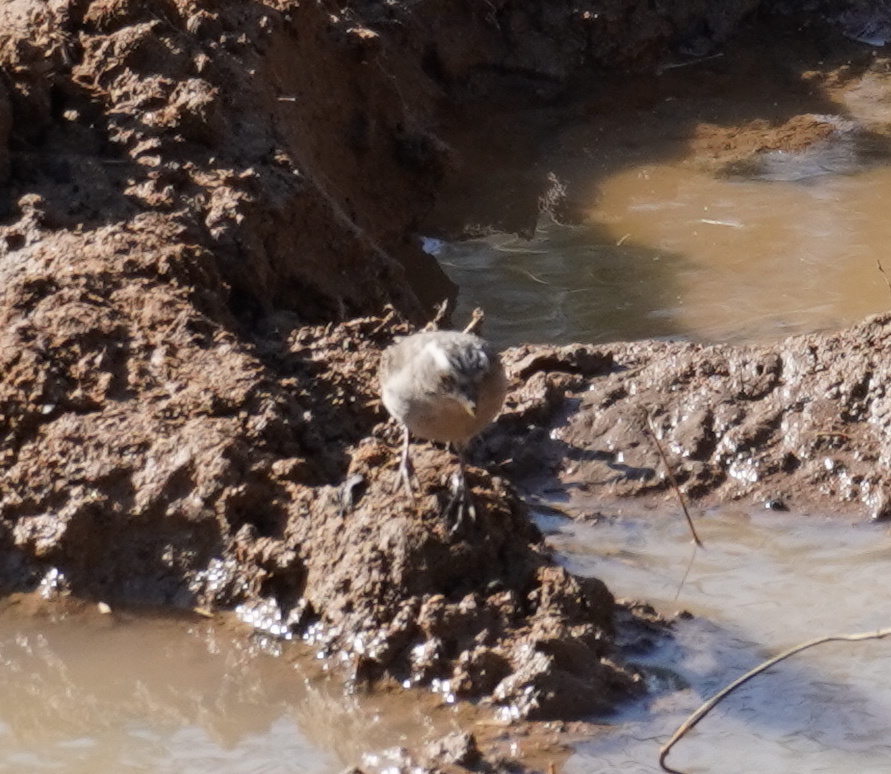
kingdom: Animalia
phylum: Chordata
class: Aves
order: Passeriformes
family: Fringillidae
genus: Crithagra
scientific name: Crithagra gularis
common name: Streaky-headed seedeater
